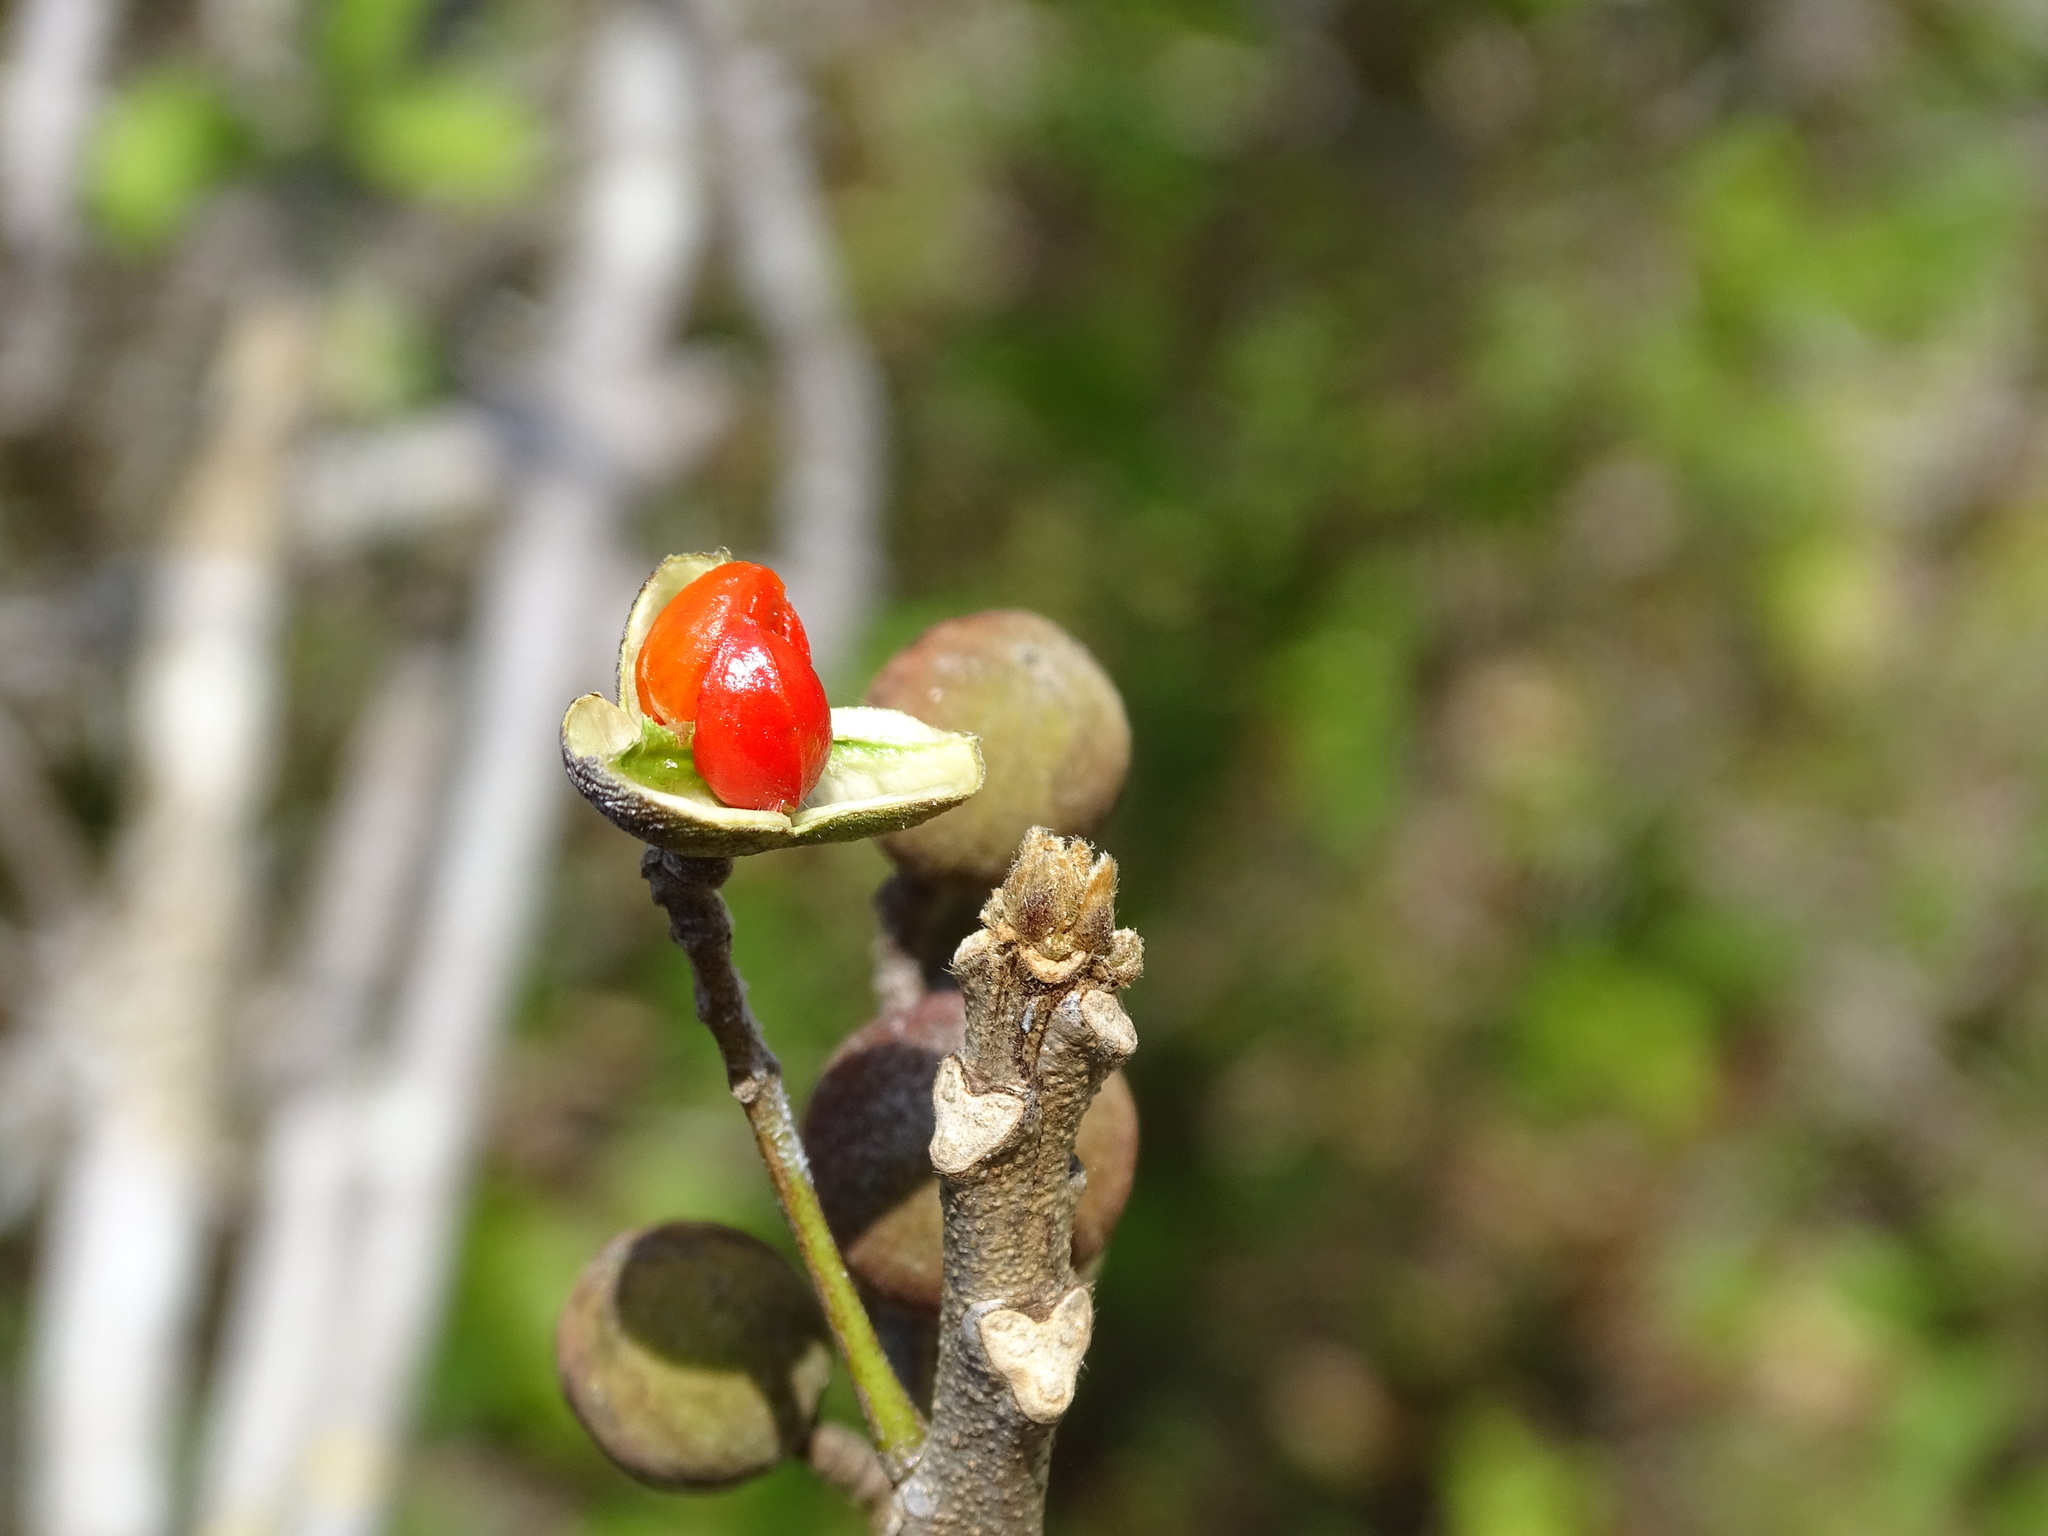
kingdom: Plantae
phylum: Tracheophyta
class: Magnoliopsida
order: Sapindales
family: Meliaceae
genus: Trichilia
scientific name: Trichilia americana
